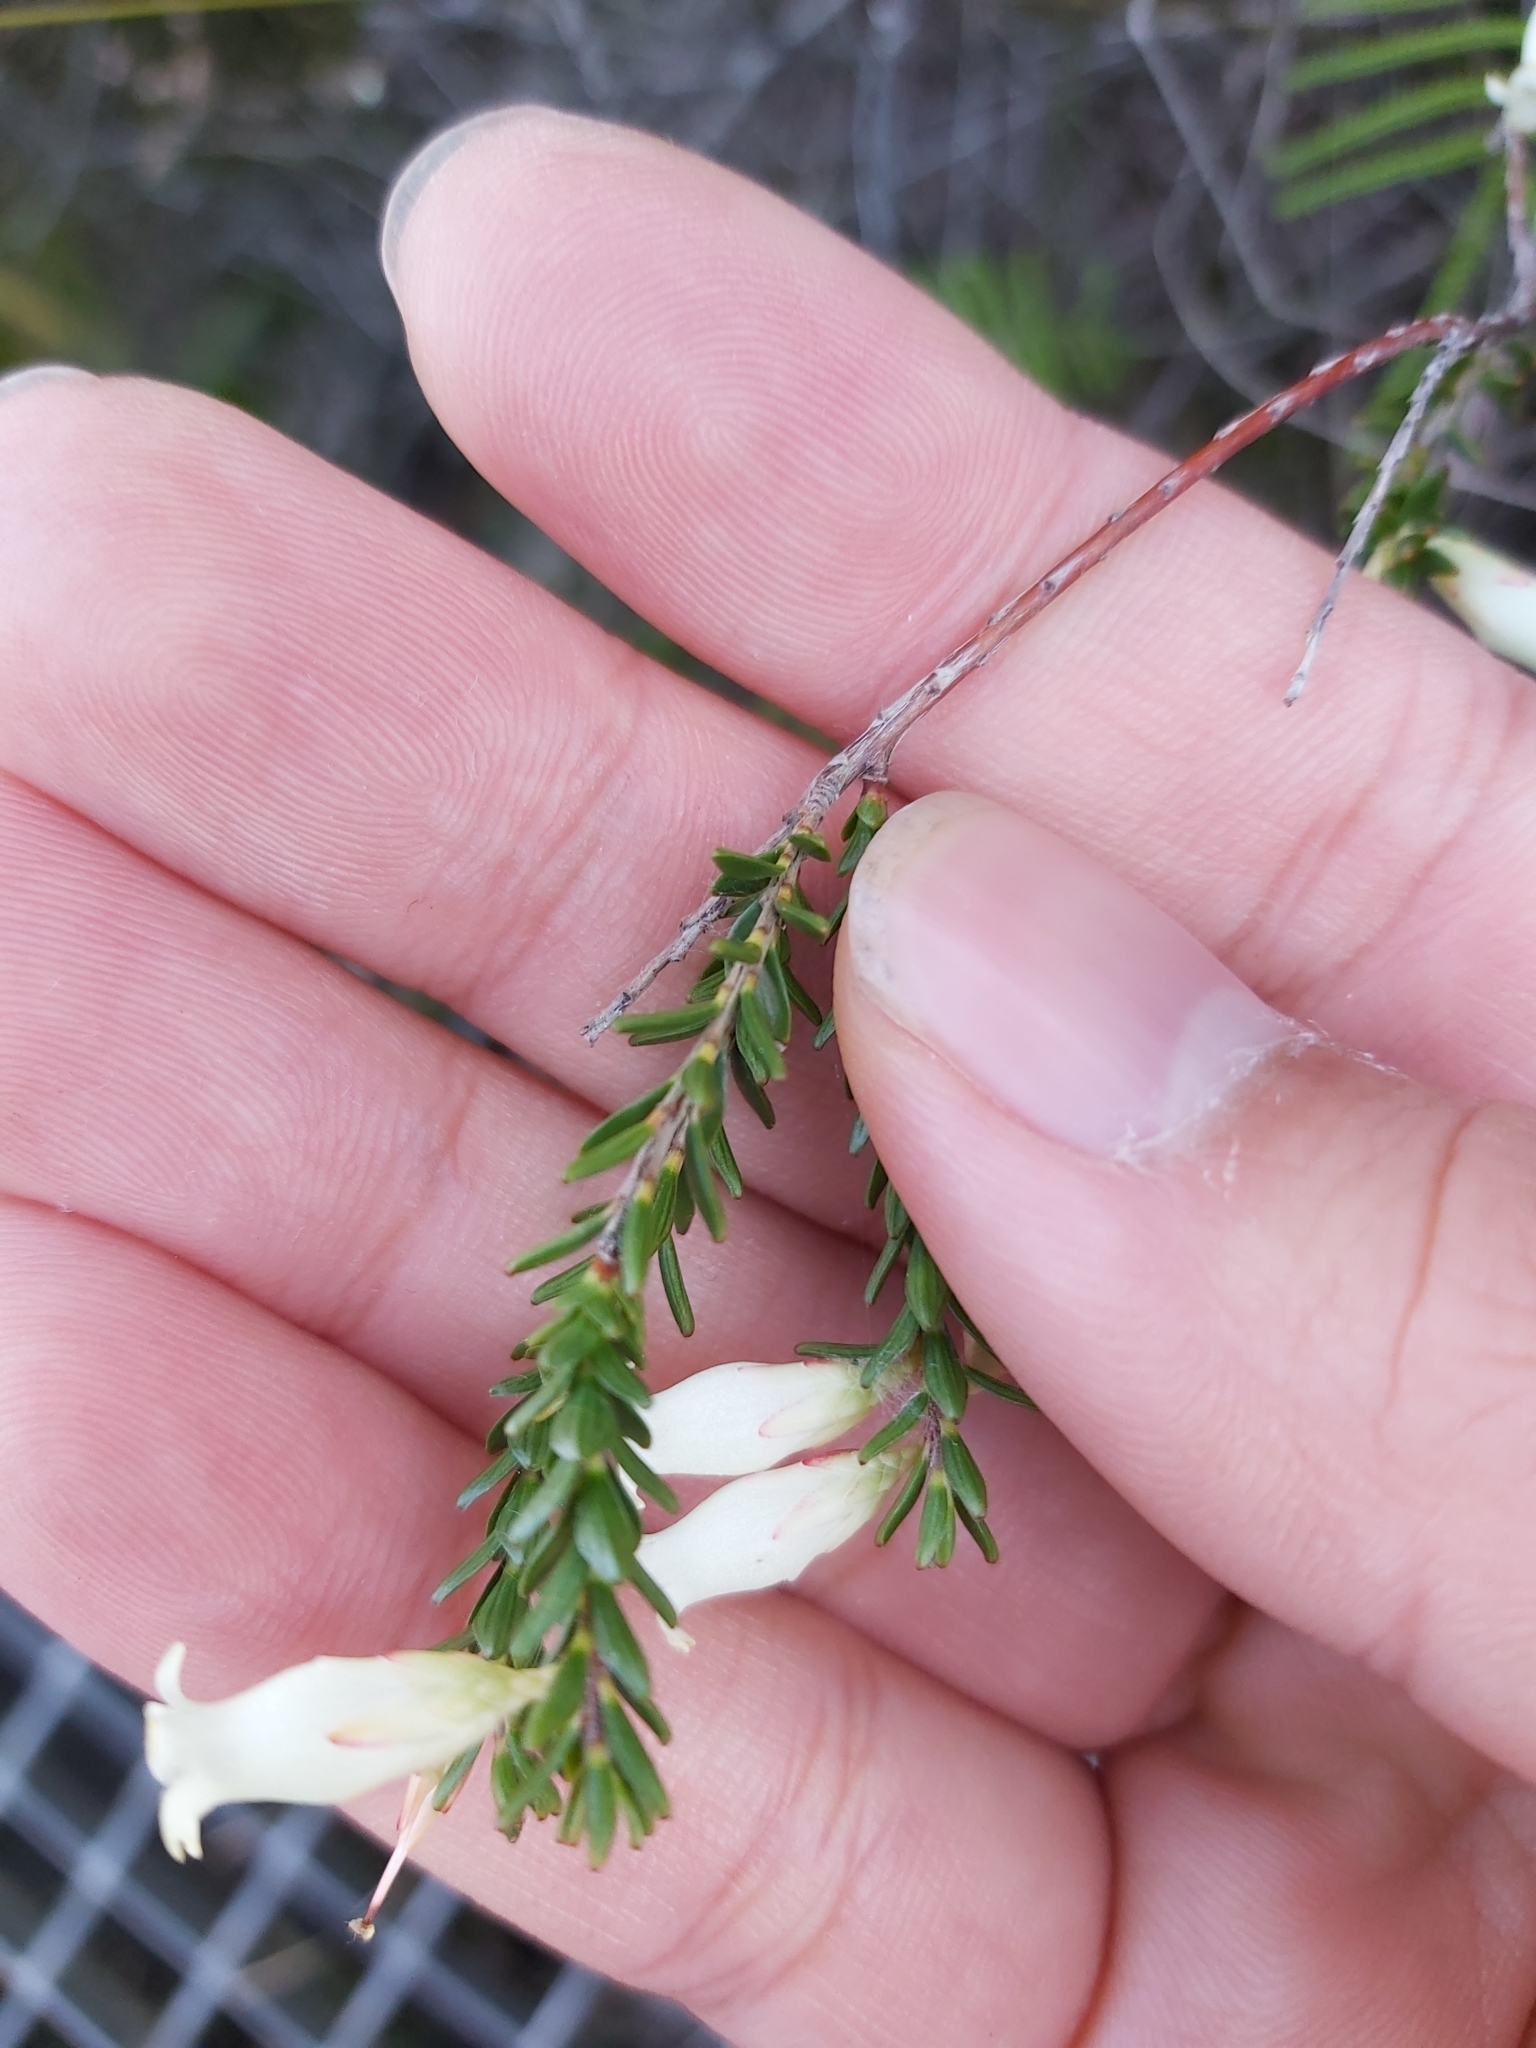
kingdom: Plantae
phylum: Tracheophyta
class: Magnoliopsida
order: Ericales
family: Ericaceae
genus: Epacris
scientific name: Epacris obtusifolia
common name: Blunt-leaf australian-heath
